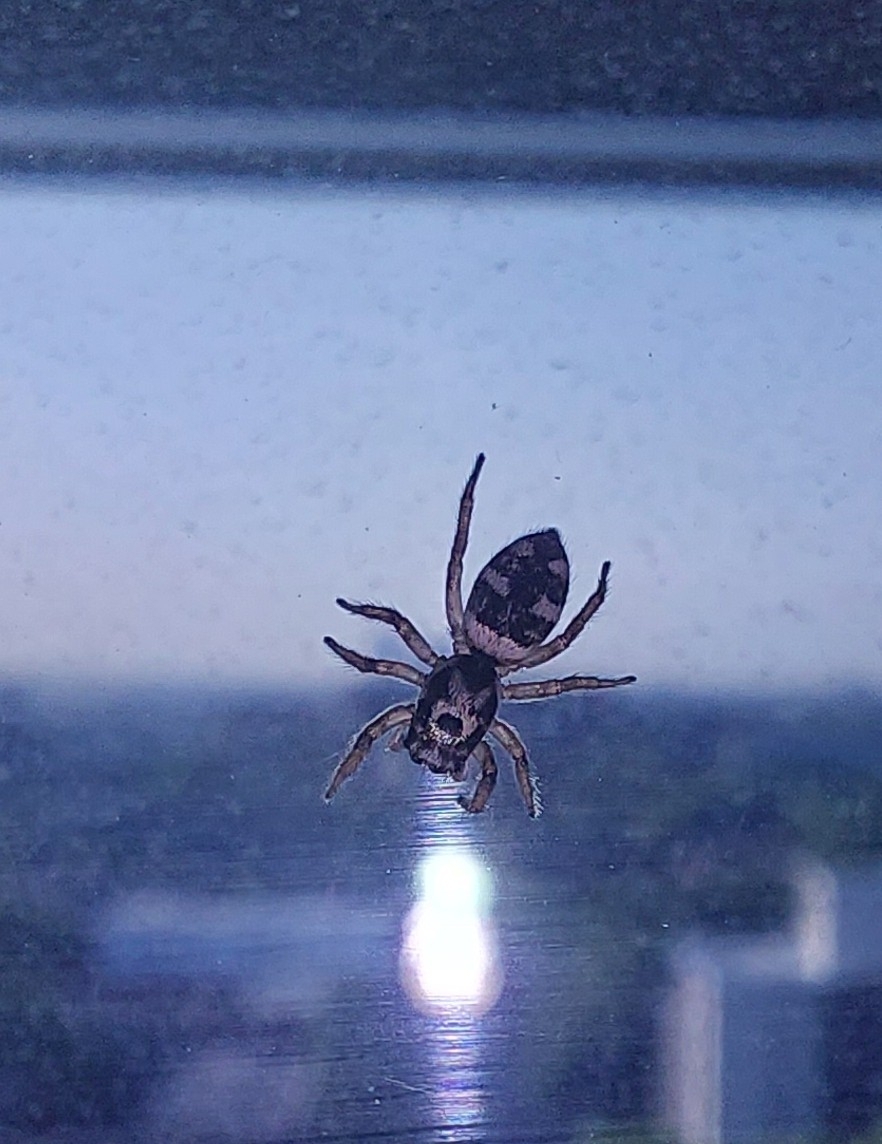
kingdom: Animalia
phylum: Arthropoda
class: Arachnida
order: Araneae
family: Salticidae
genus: Salticus
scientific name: Salticus scenicus
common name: Zebra jumper
